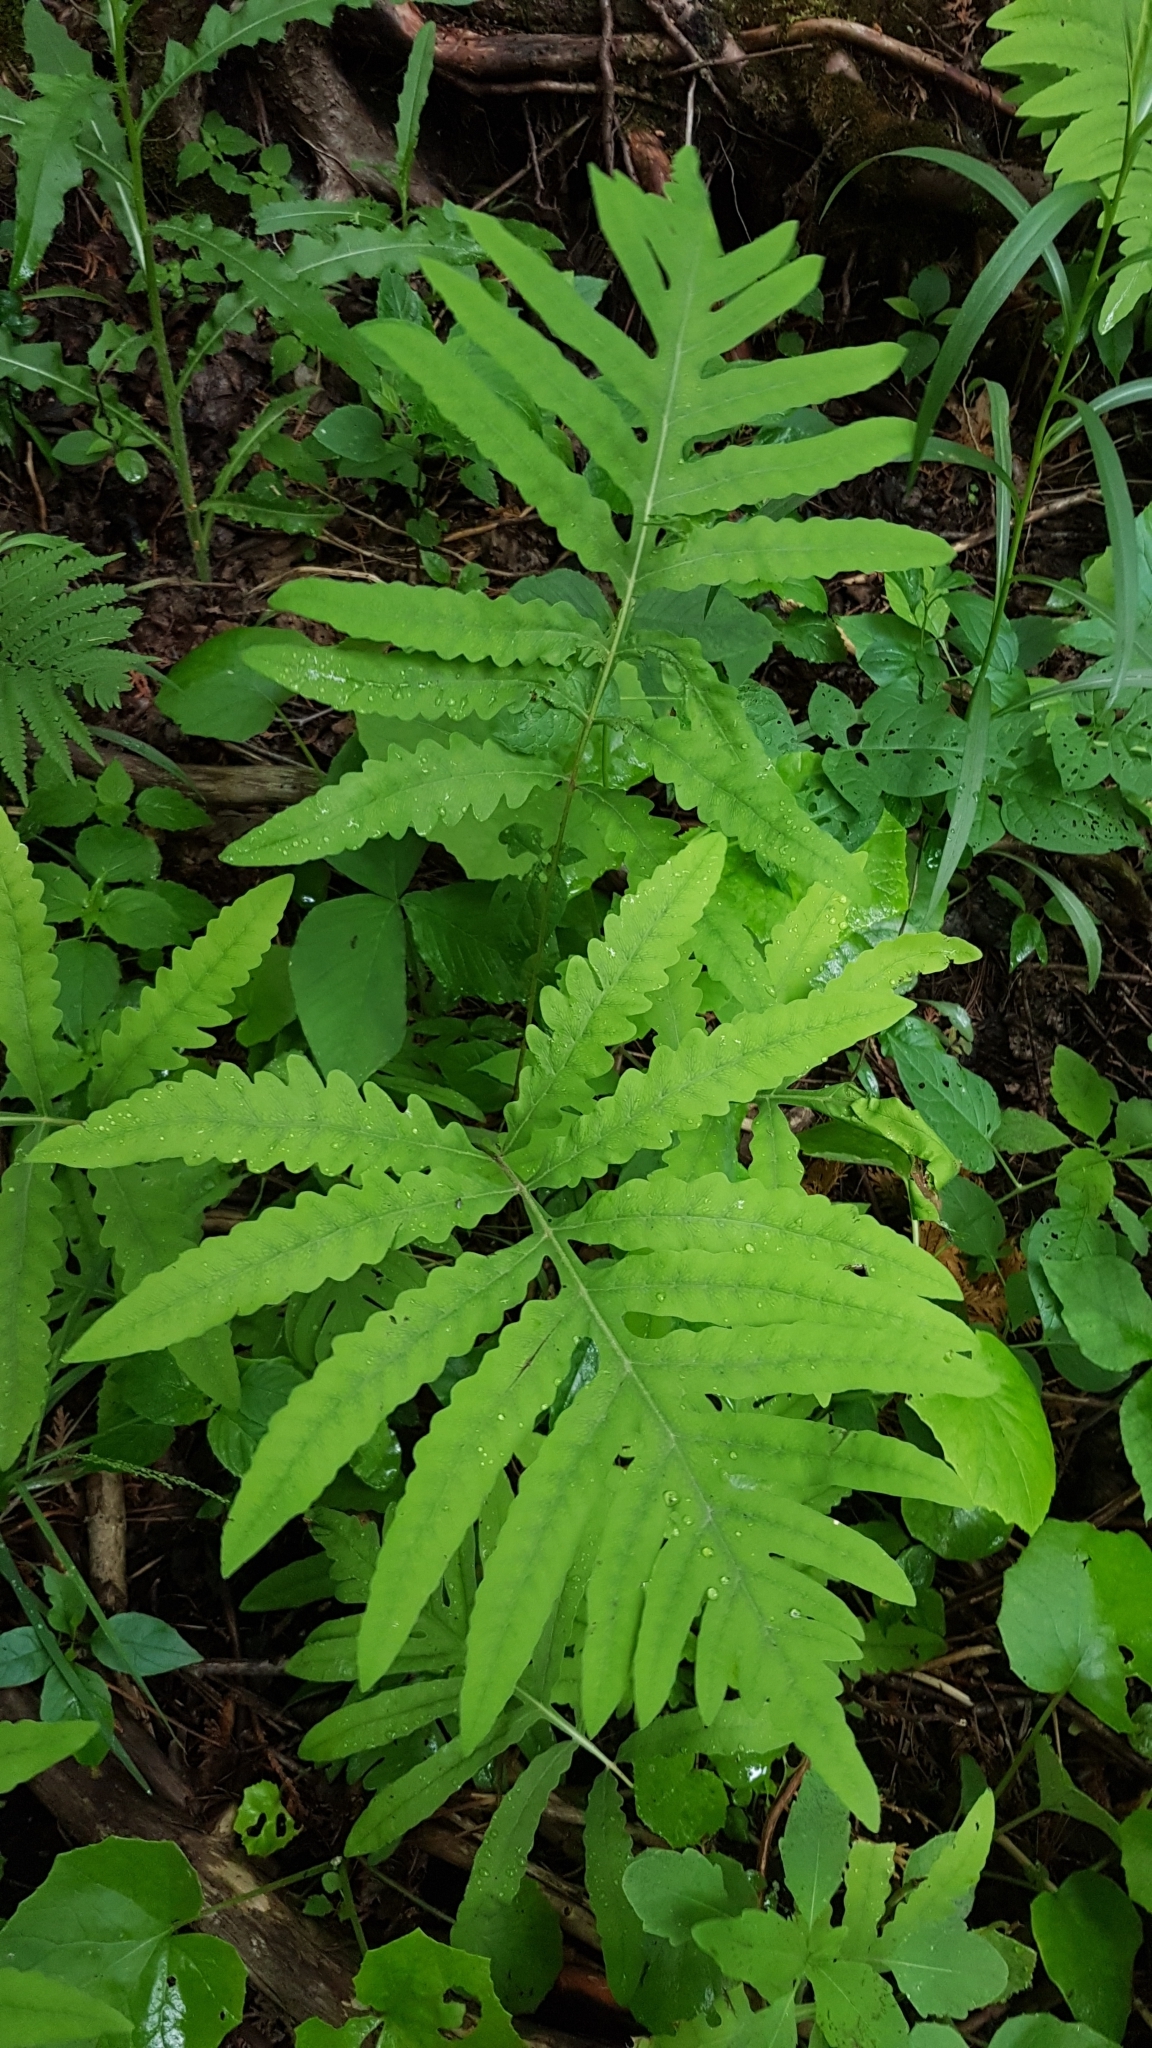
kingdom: Plantae
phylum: Tracheophyta
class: Polypodiopsida
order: Polypodiales
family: Onocleaceae
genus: Onoclea
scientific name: Onoclea sensibilis
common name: Sensitive fern
